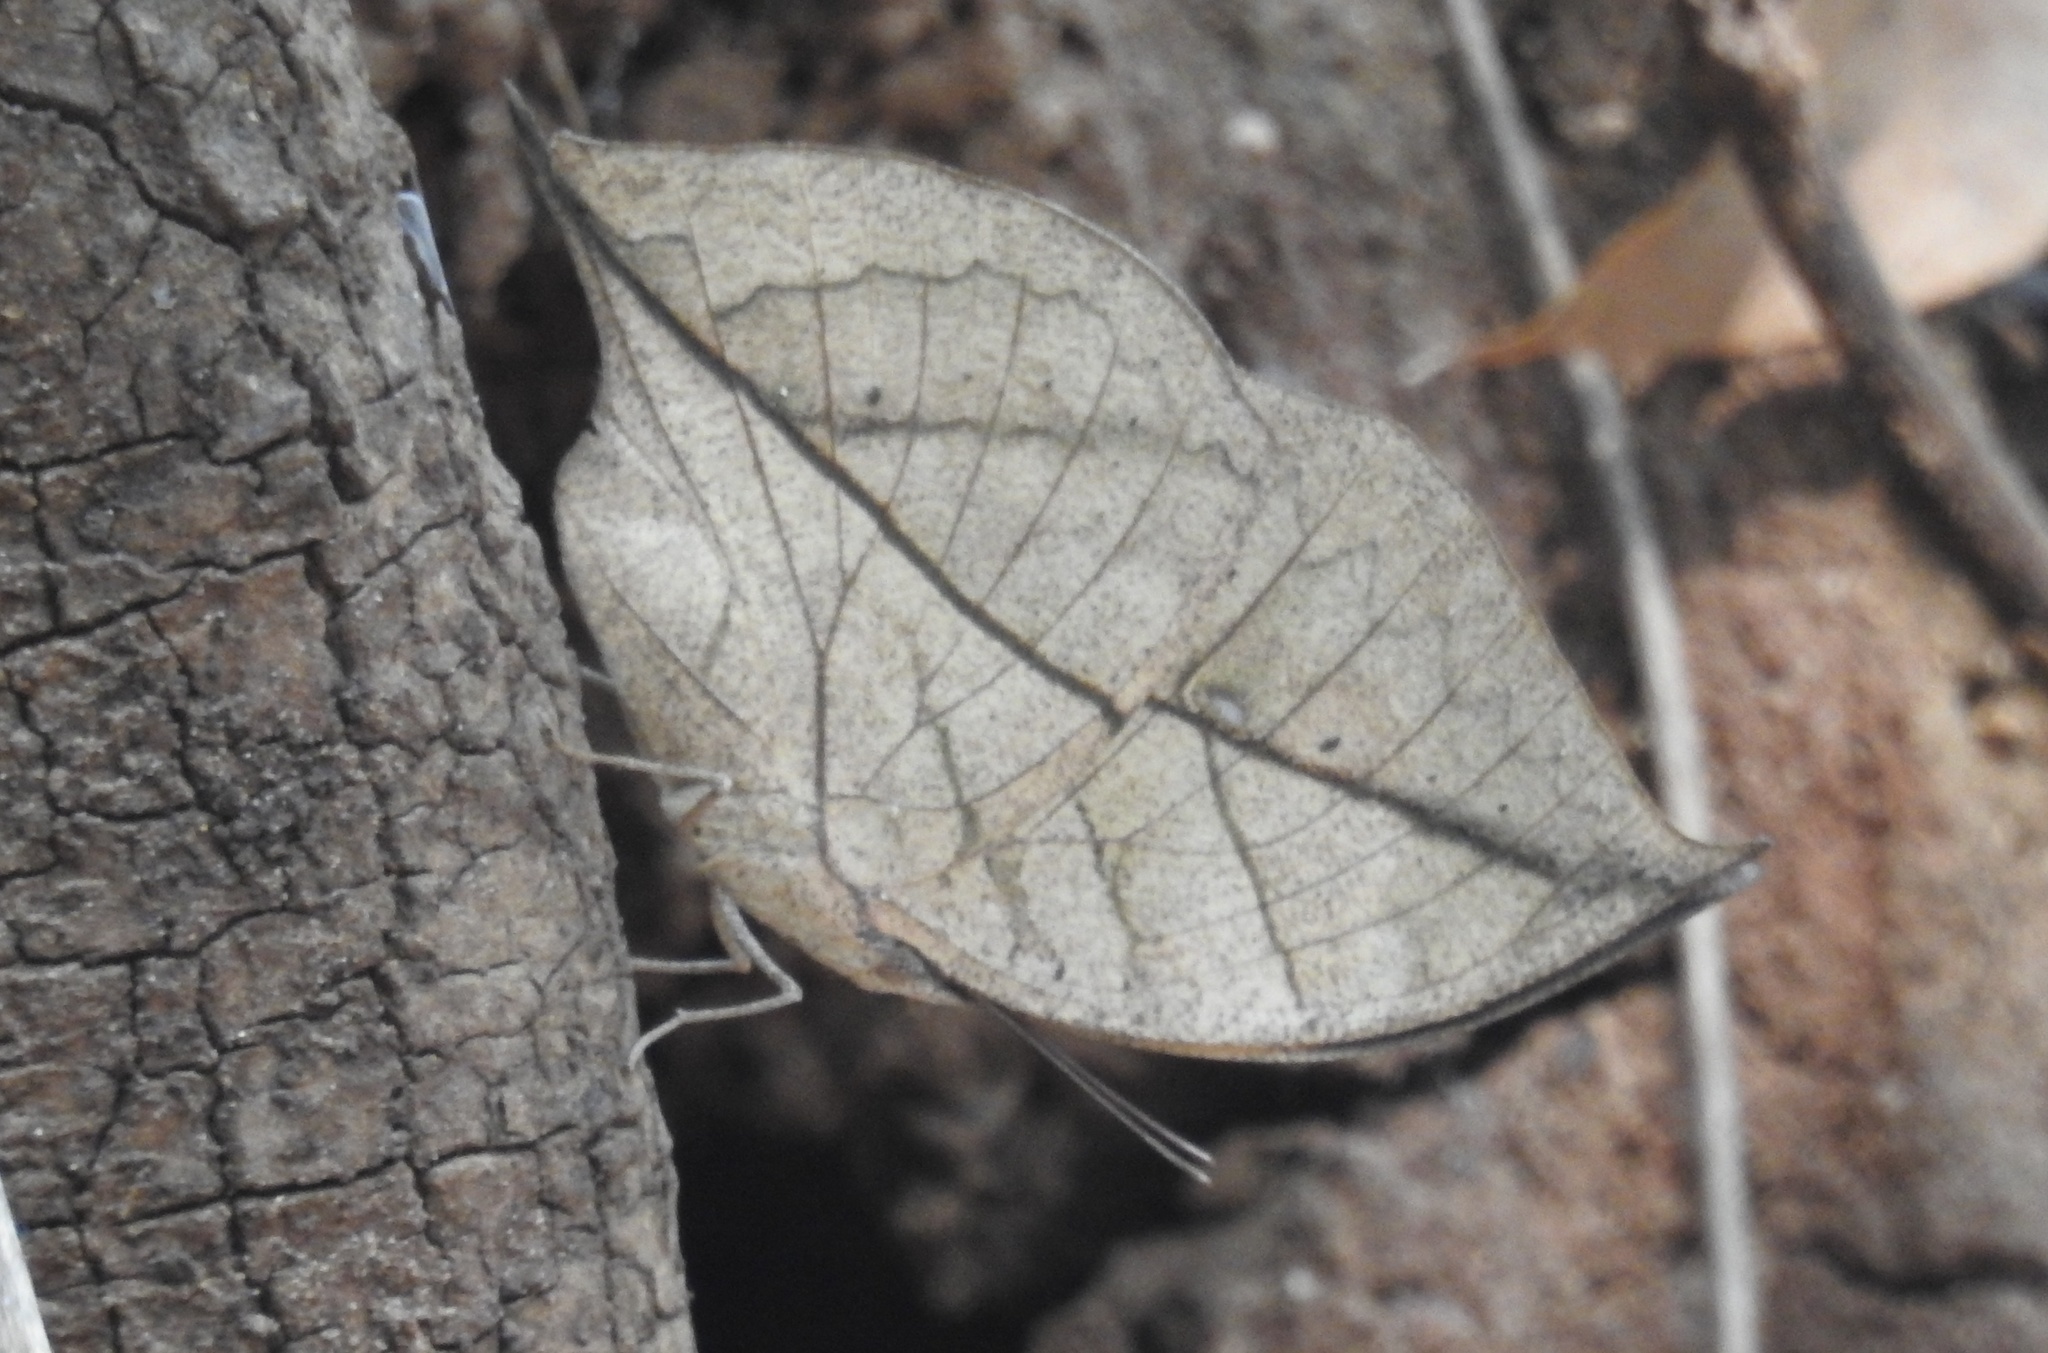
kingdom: Animalia
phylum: Arthropoda
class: Insecta
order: Lepidoptera
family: Nymphalidae
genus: Kallima
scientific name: Kallima inachus
